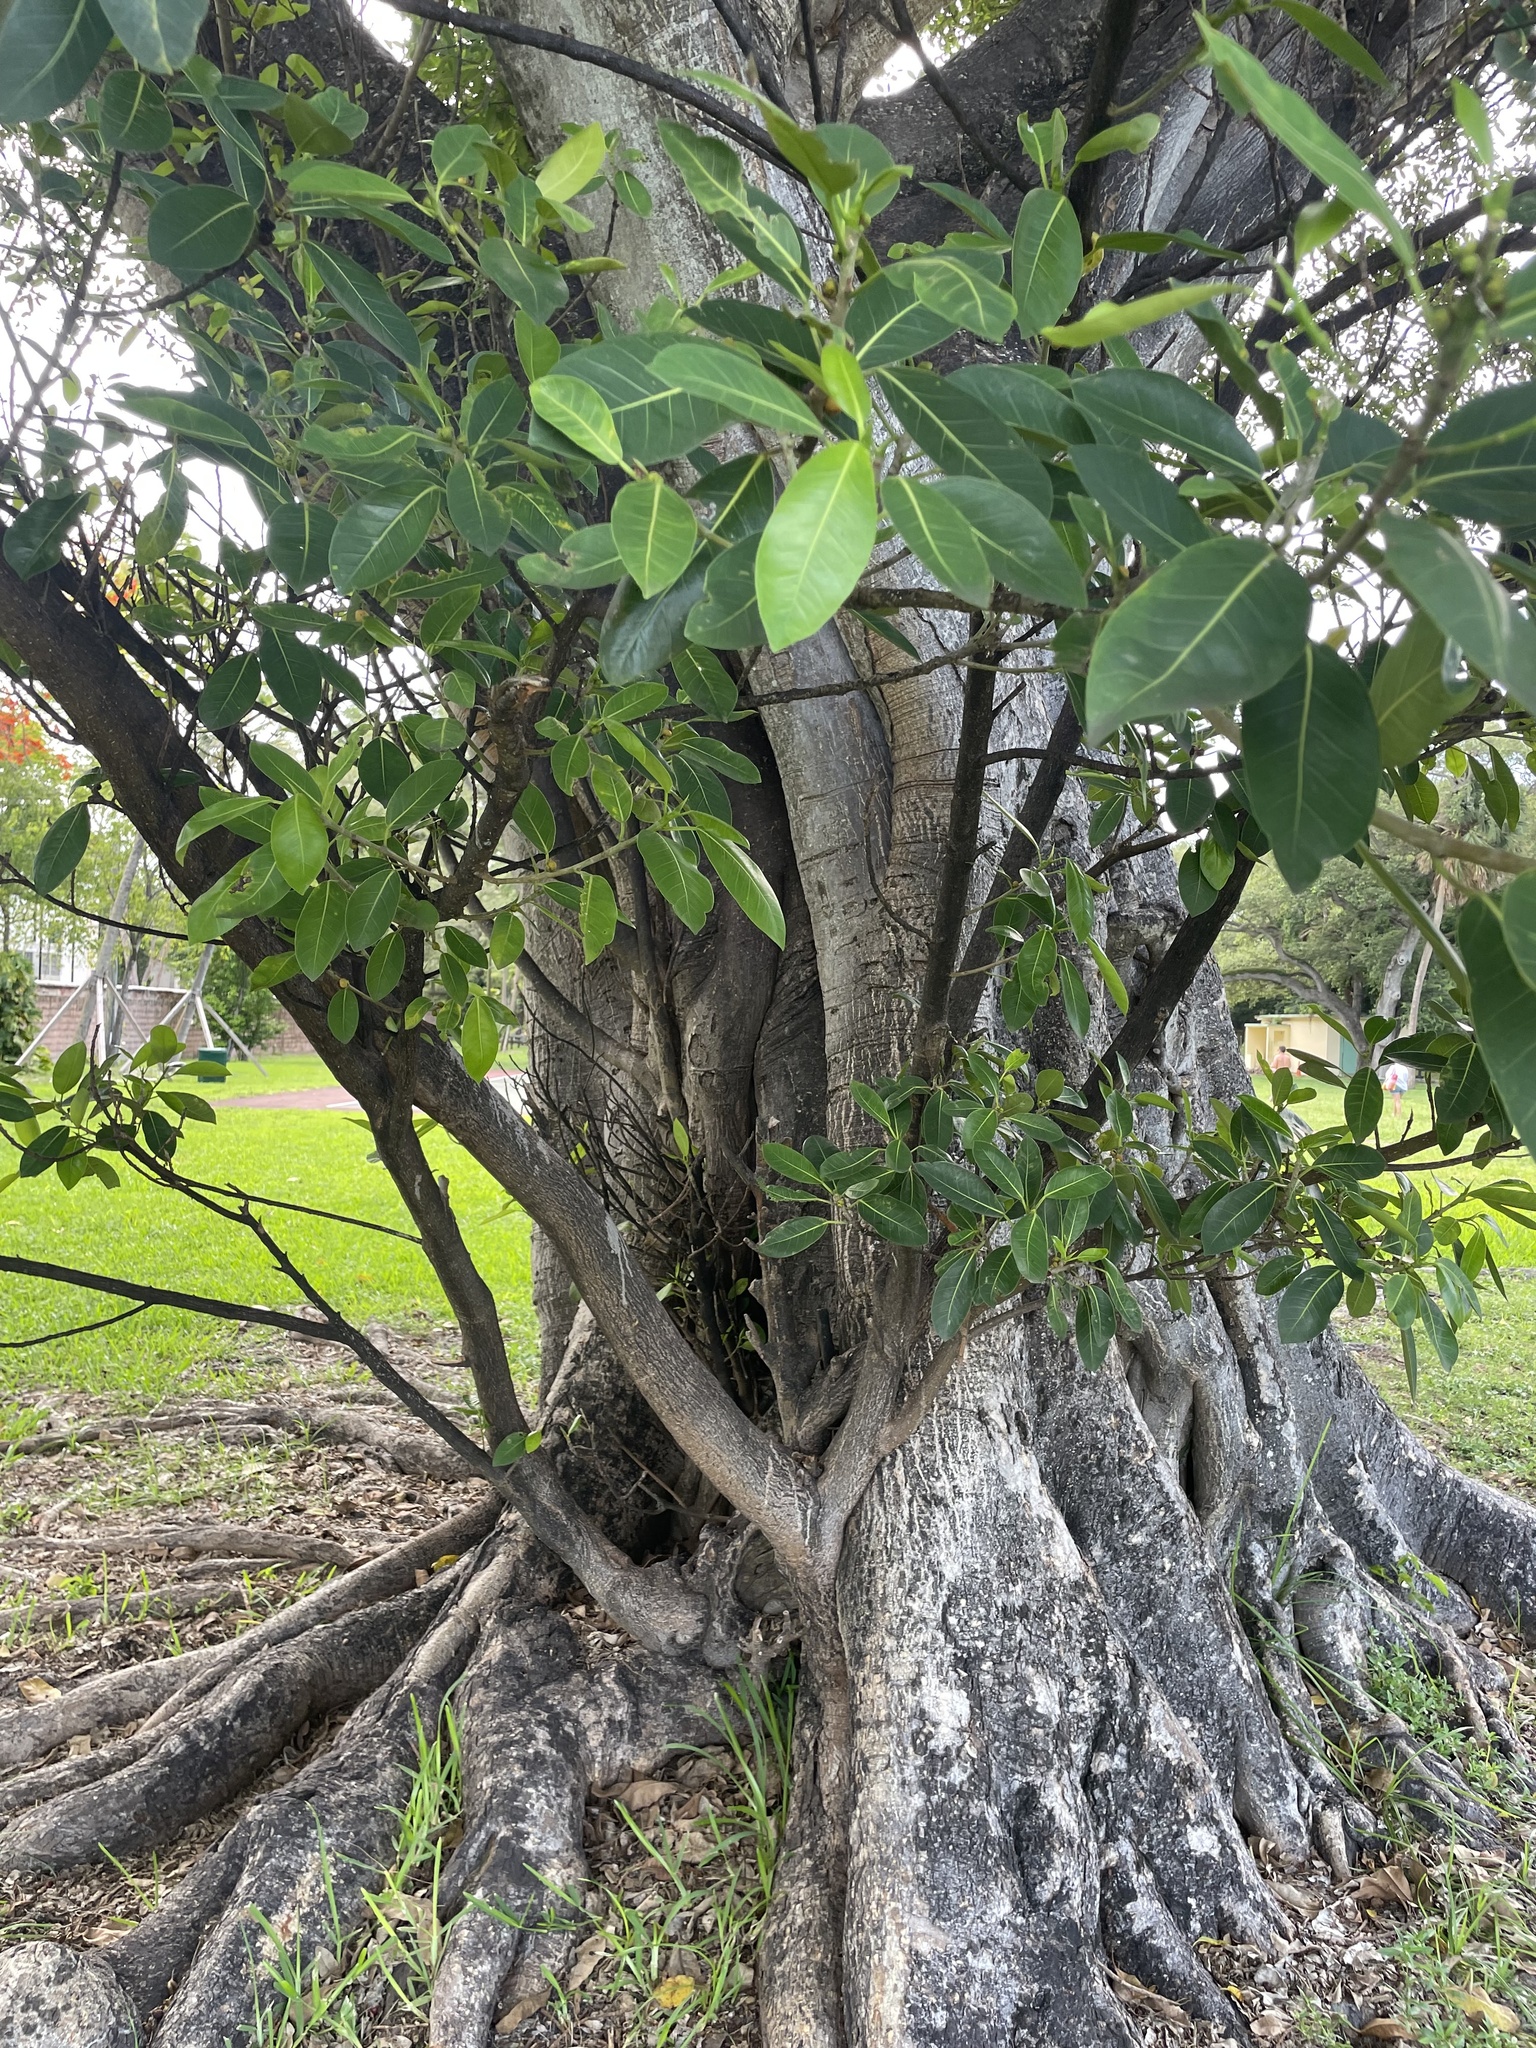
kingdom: Plantae
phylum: Tracheophyta
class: Magnoliopsida
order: Rosales
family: Moraceae
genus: Ficus
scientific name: Ficus aurea
